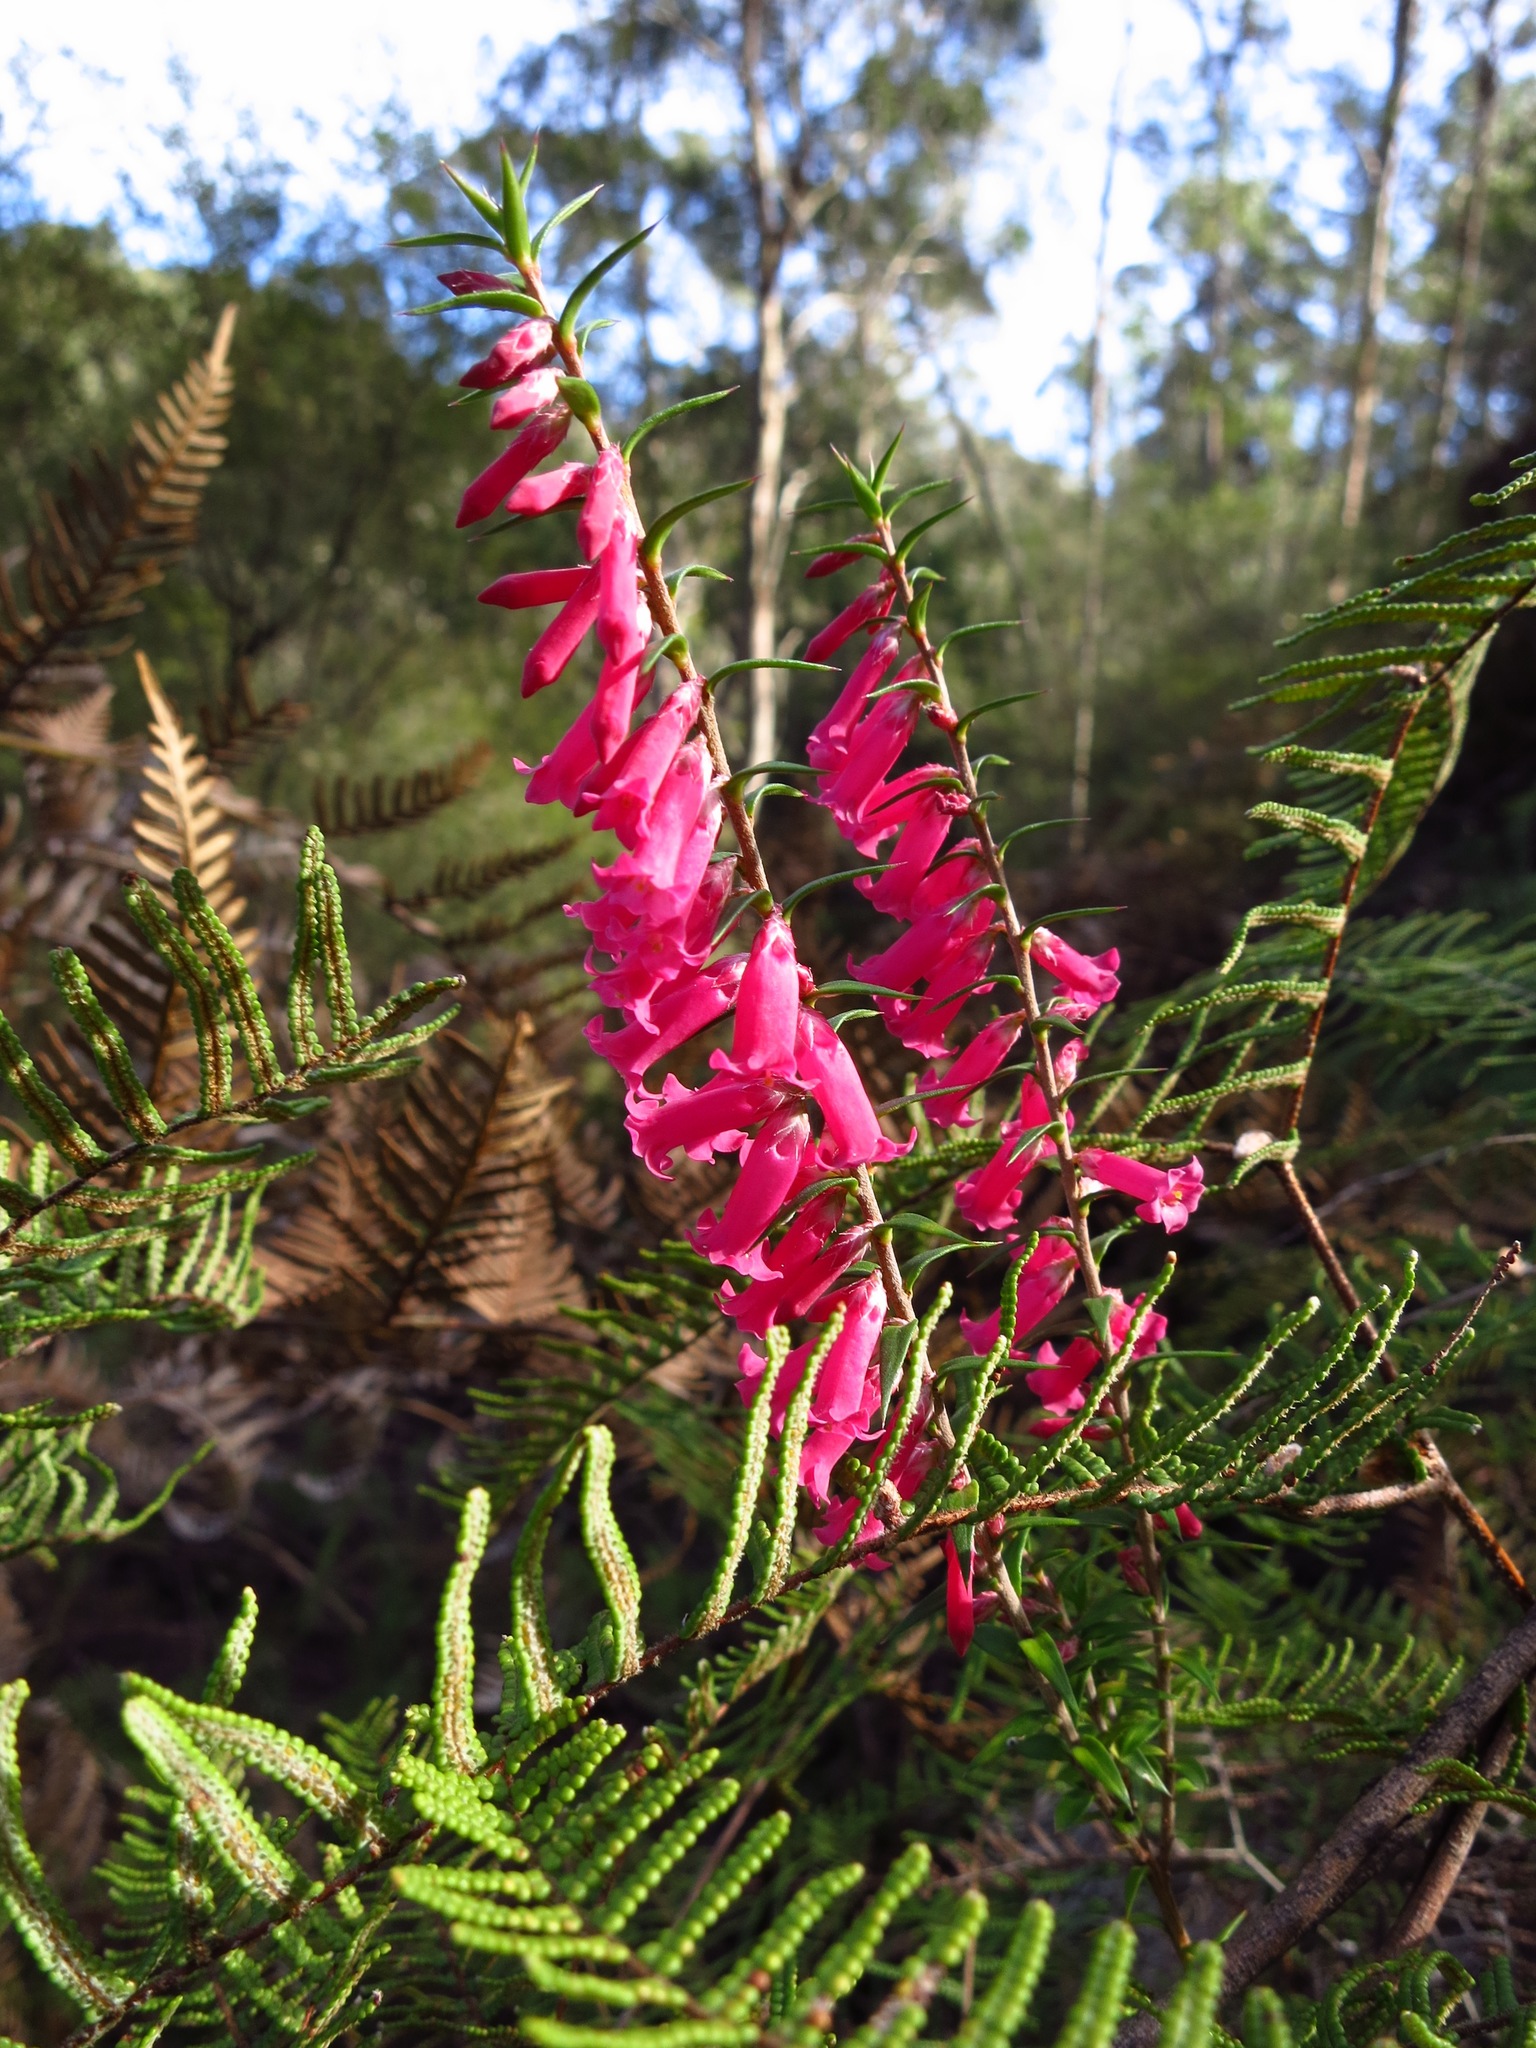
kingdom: Plantae
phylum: Tracheophyta
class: Magnoliopsida
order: Ericales
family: Ericaceae
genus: Epacris
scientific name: Epacris impressa
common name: Common-heath
